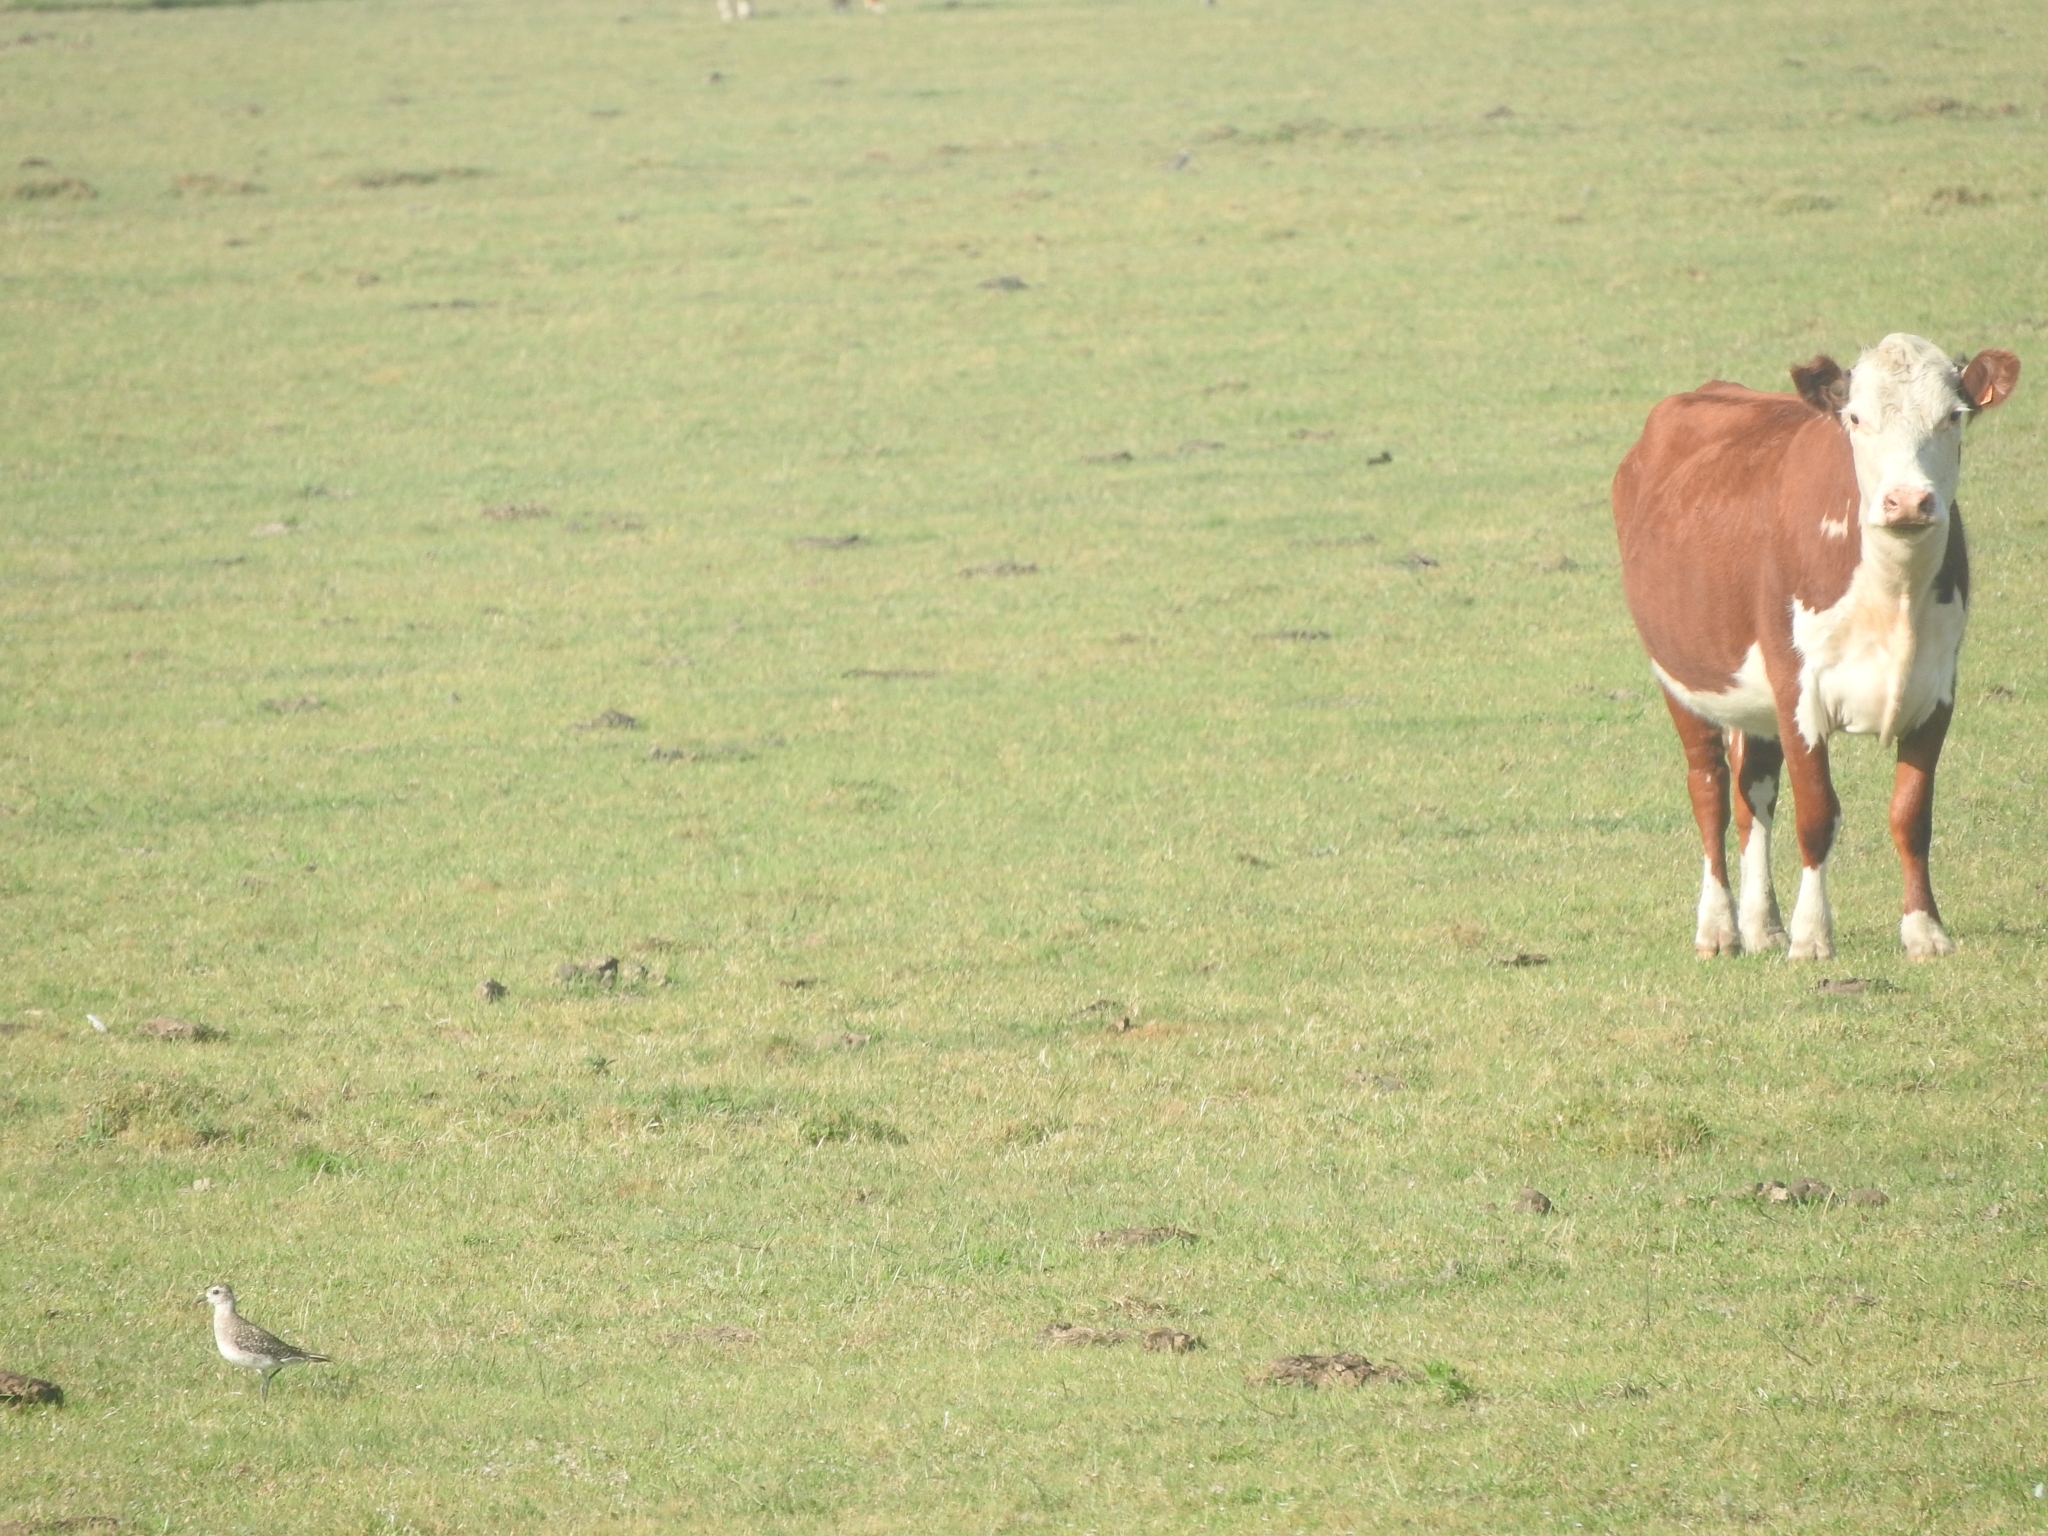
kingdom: Animalia
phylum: Chordata
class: Aves
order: Charadriiformes
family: Charadriidae
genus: Pluvialis
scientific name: Pluvialis dominica
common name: American golden plover
